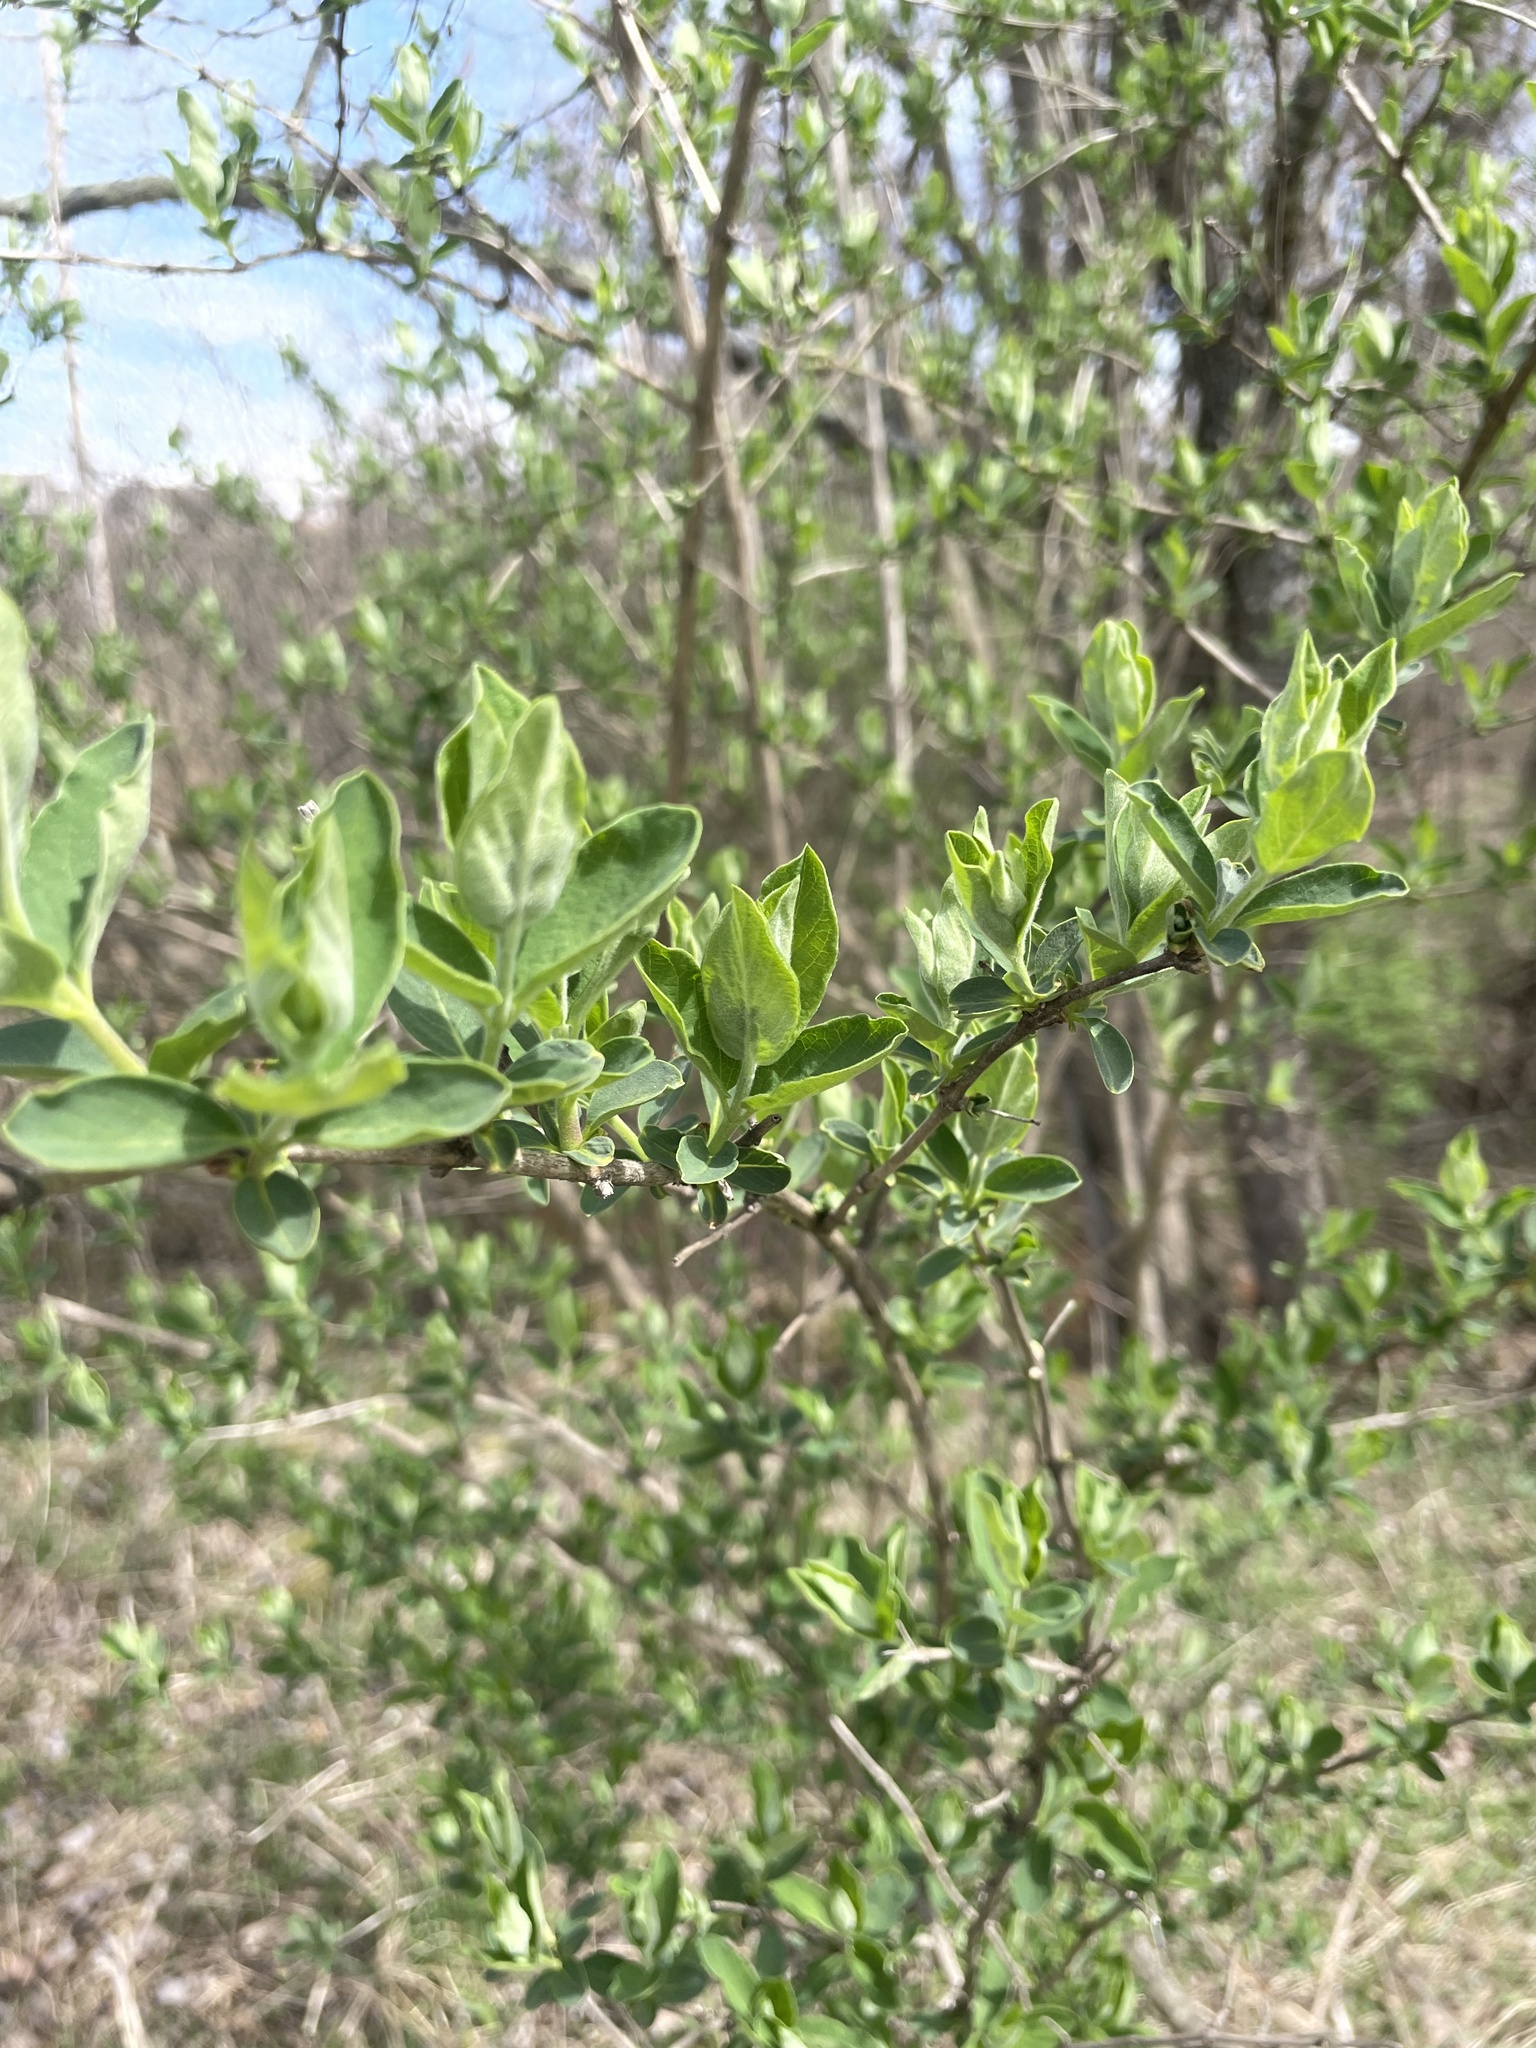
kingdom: Plantae
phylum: Tracheophyta
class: Magnoliopsida
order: Dipsacales
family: Caprifoliaceae
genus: Lonicera
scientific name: Lonicera morrowii
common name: Morrow's honeysuckle
